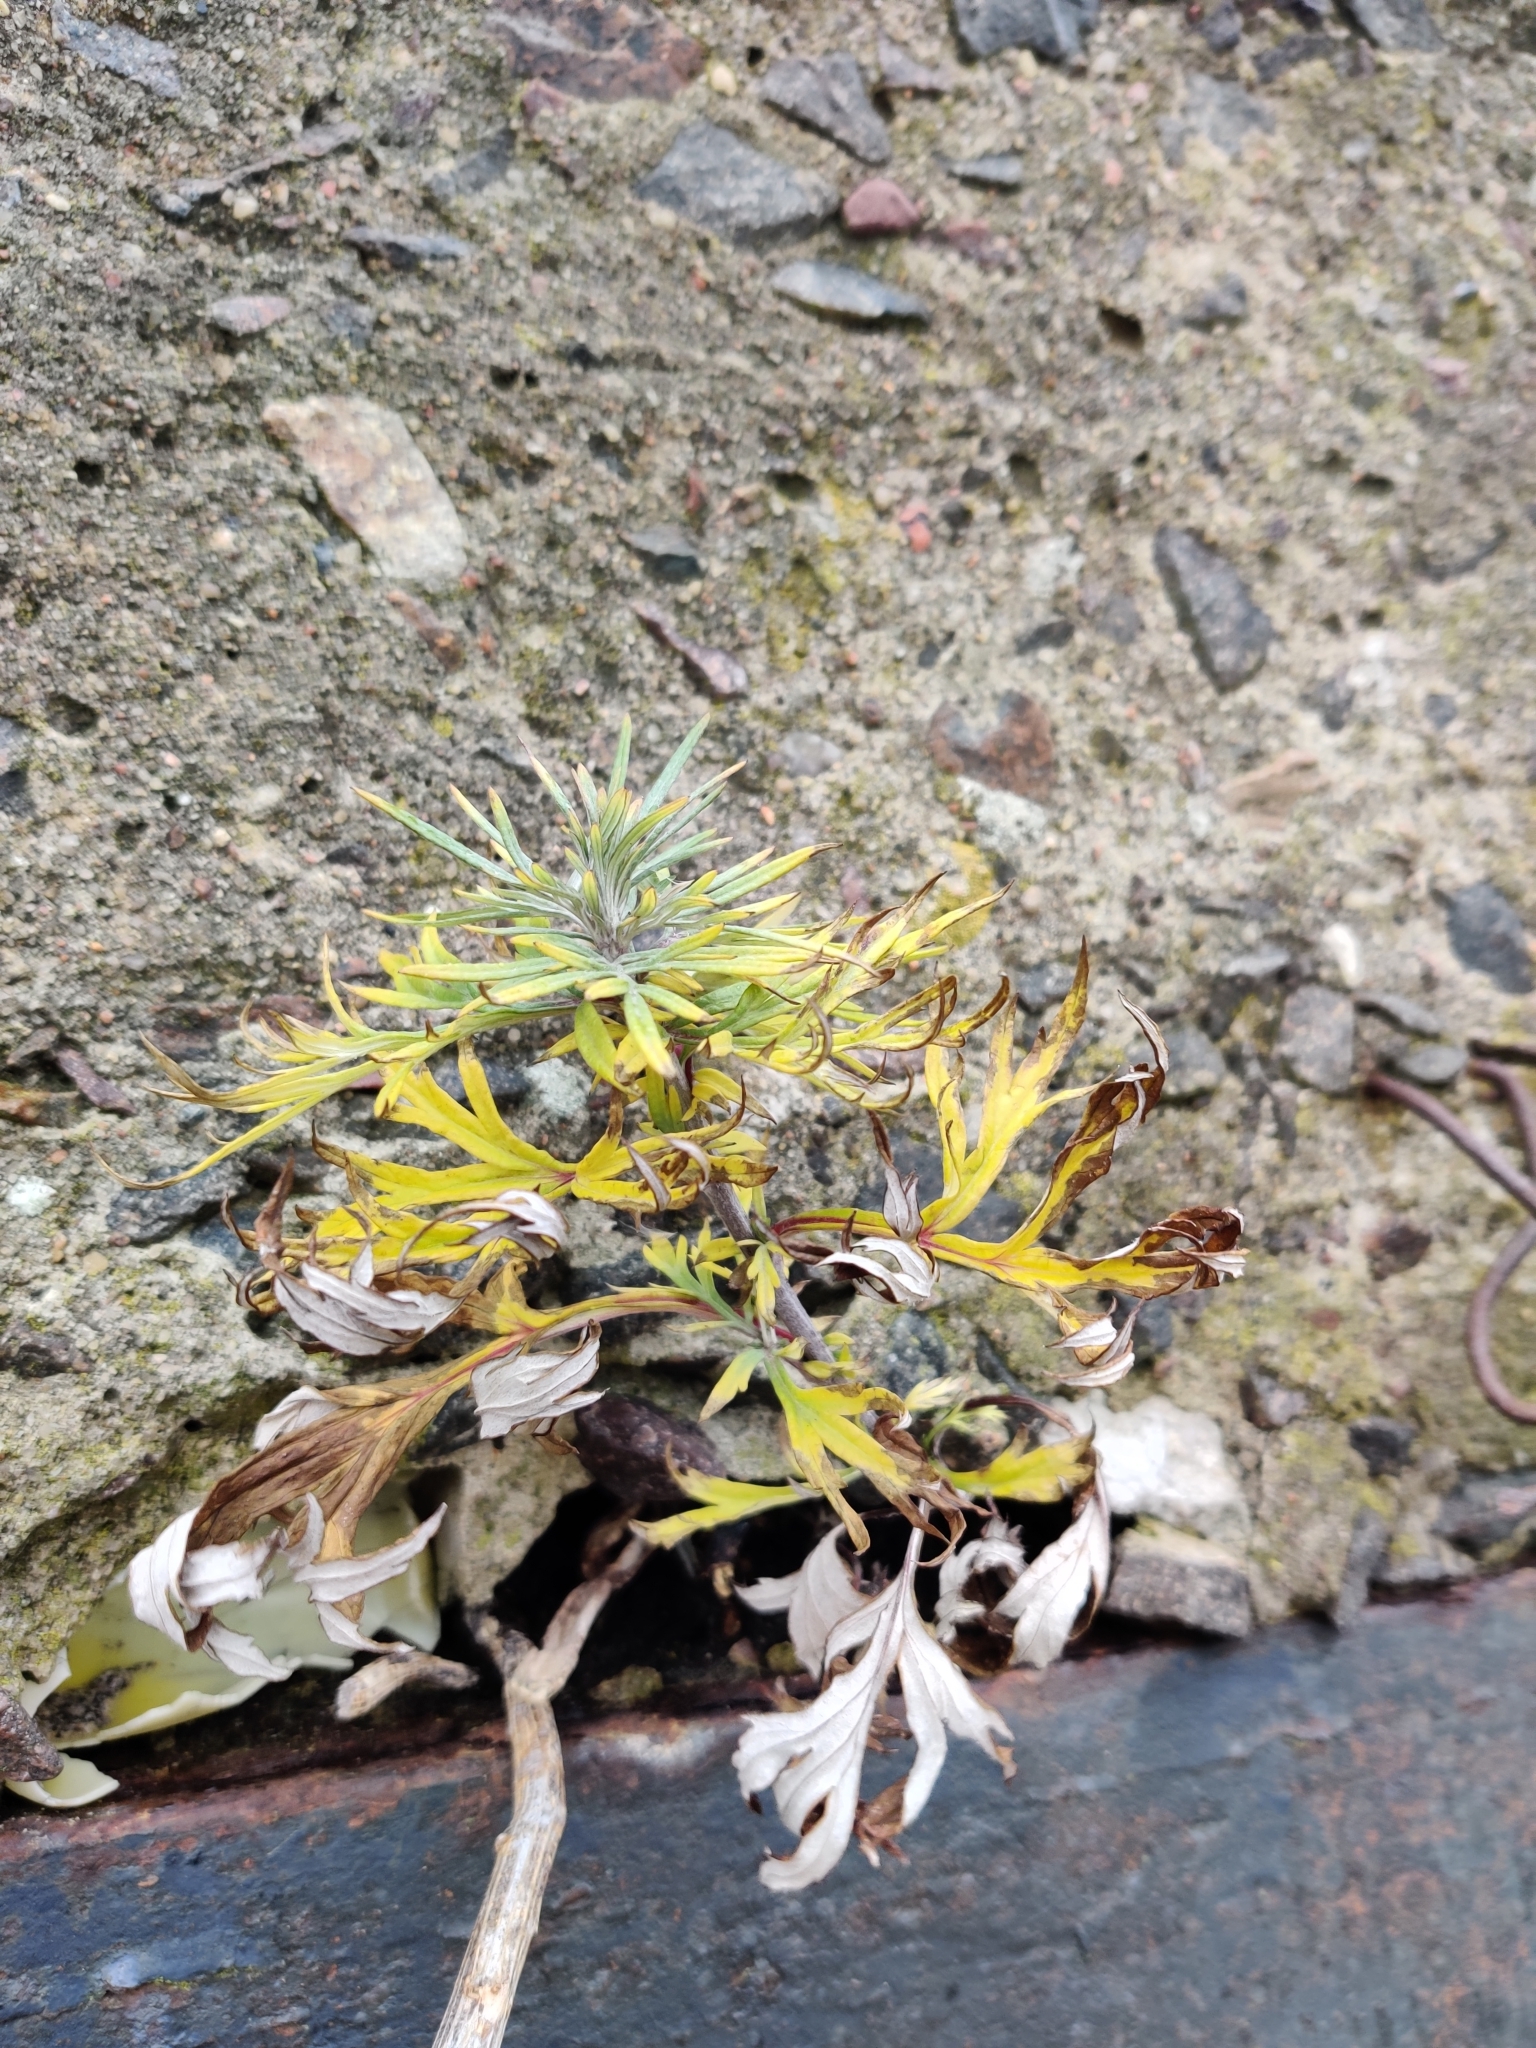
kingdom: Plantae
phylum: Tracheophyta
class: Magnoliopsida
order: Asterales
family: Asteraceae
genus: Artemisia
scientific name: Artemisia vulgaris
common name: Mugwort
